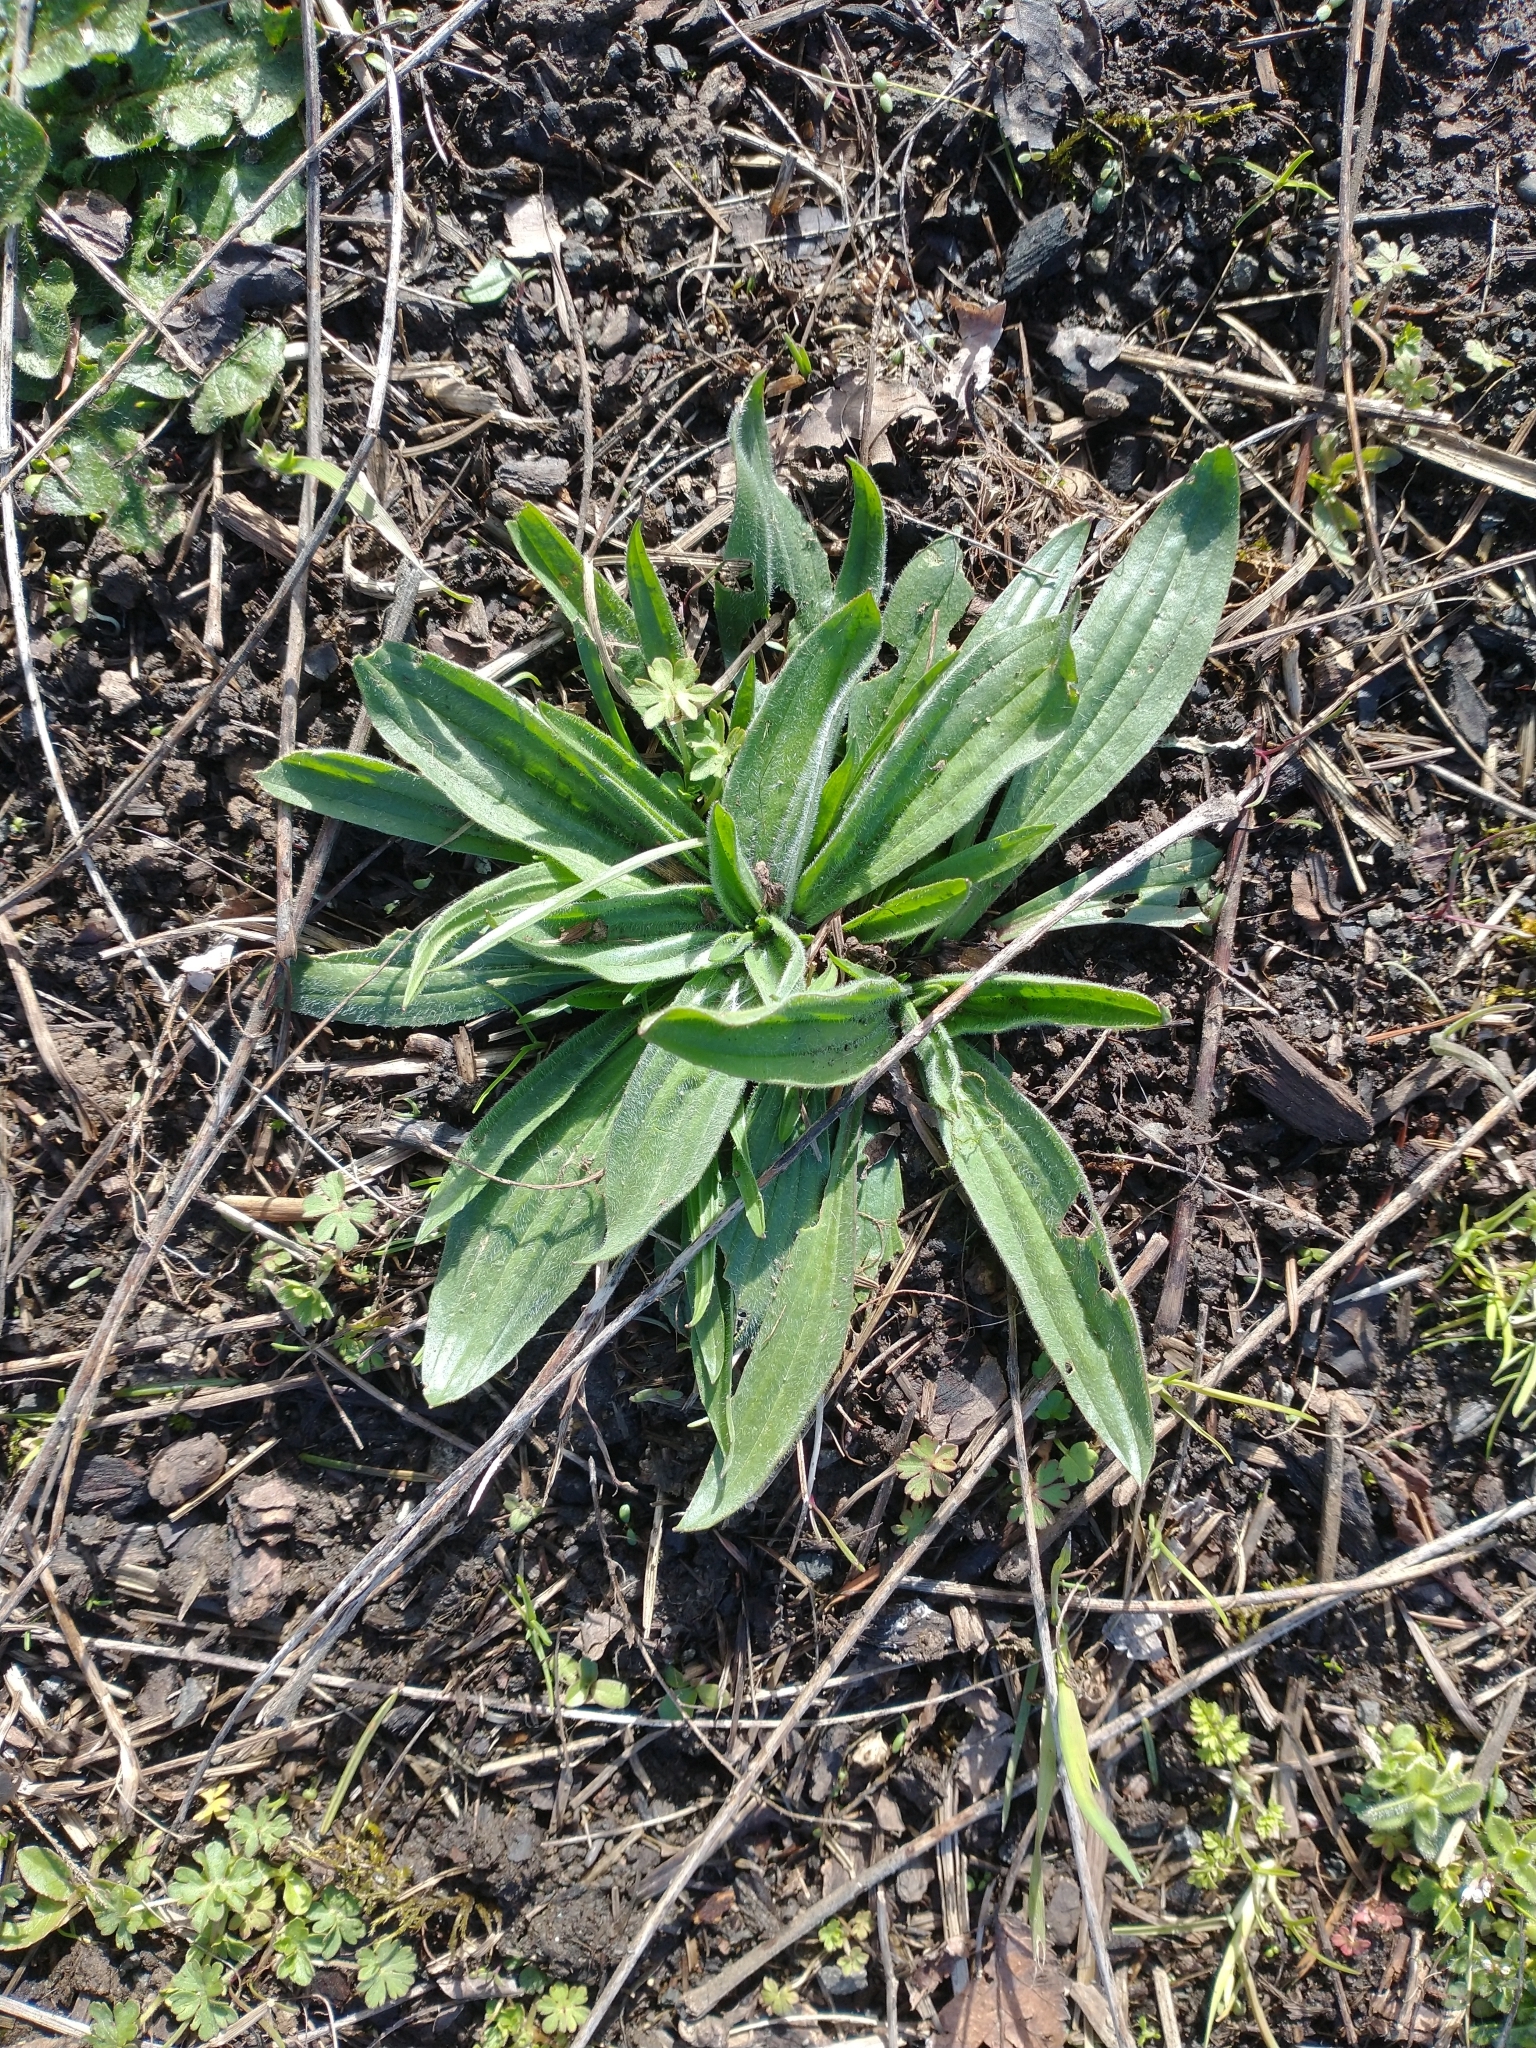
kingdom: Plantae
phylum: Tracheophyta
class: Magnoliopsida
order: Lamiales
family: Plantaginaceae
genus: Plantago
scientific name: Plantago lanceolata
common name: Ribwort plantain
